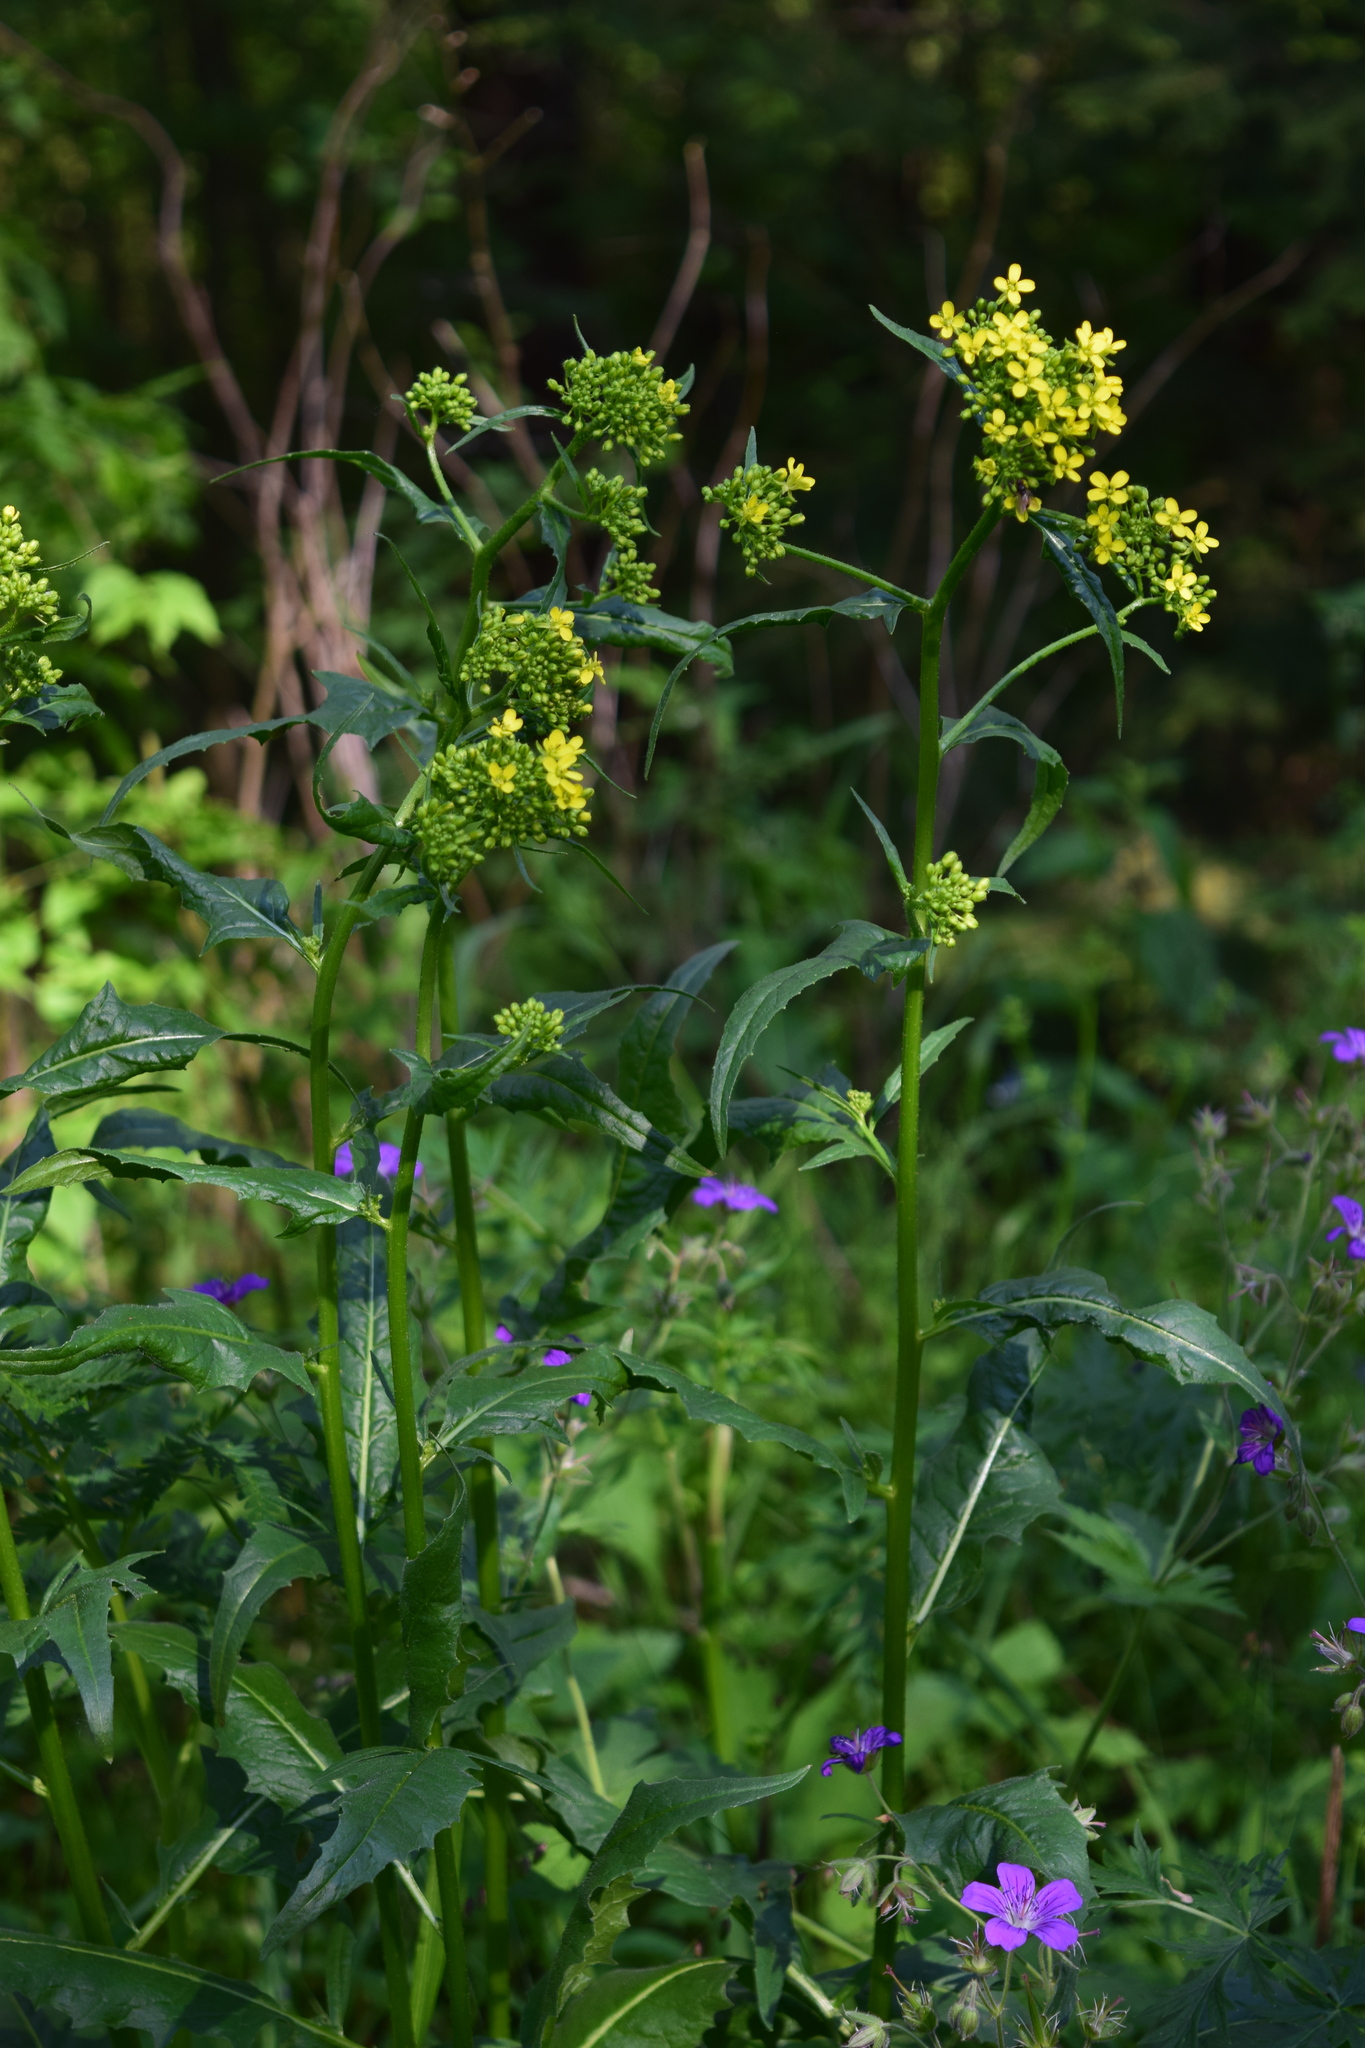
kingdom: Plantae
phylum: Tracheophyta
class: Magnoliopsida
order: Brassicales
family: Brassicaceae
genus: Bunias
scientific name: Bunias orientalis
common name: Warty-cabbage
